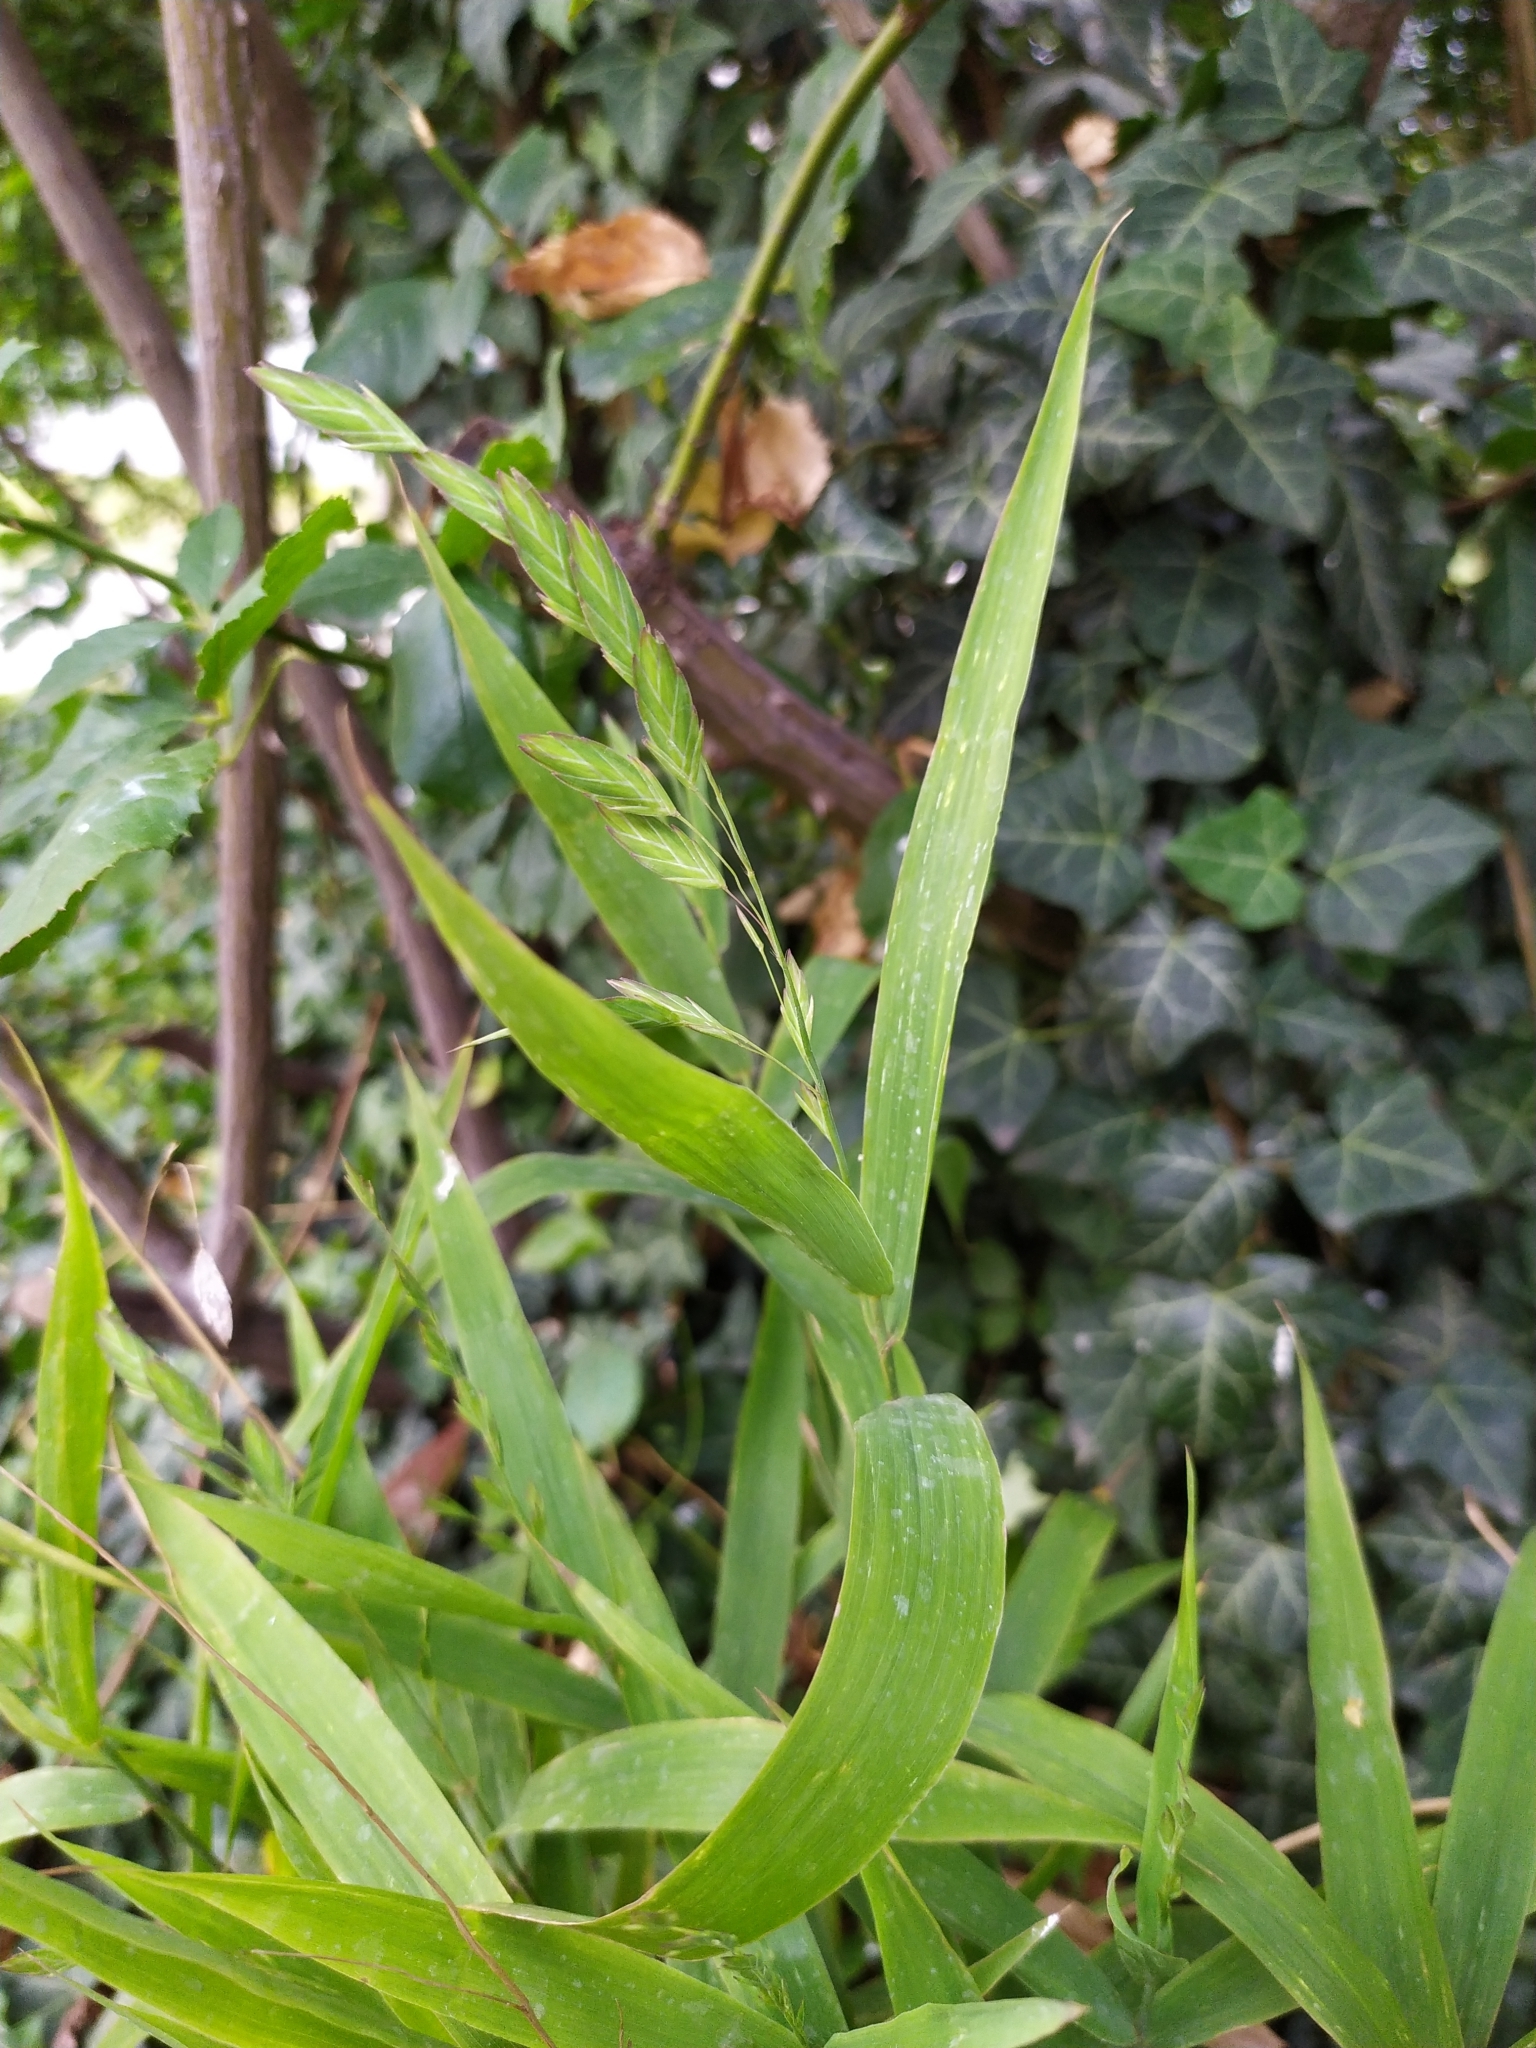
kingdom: Plantae
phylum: Tracheophyta
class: Liliopsida
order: Poales
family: Poaceae
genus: Chasmanthium
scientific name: Chasmanthium latifolium
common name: Broad-leaved chasmanthium
